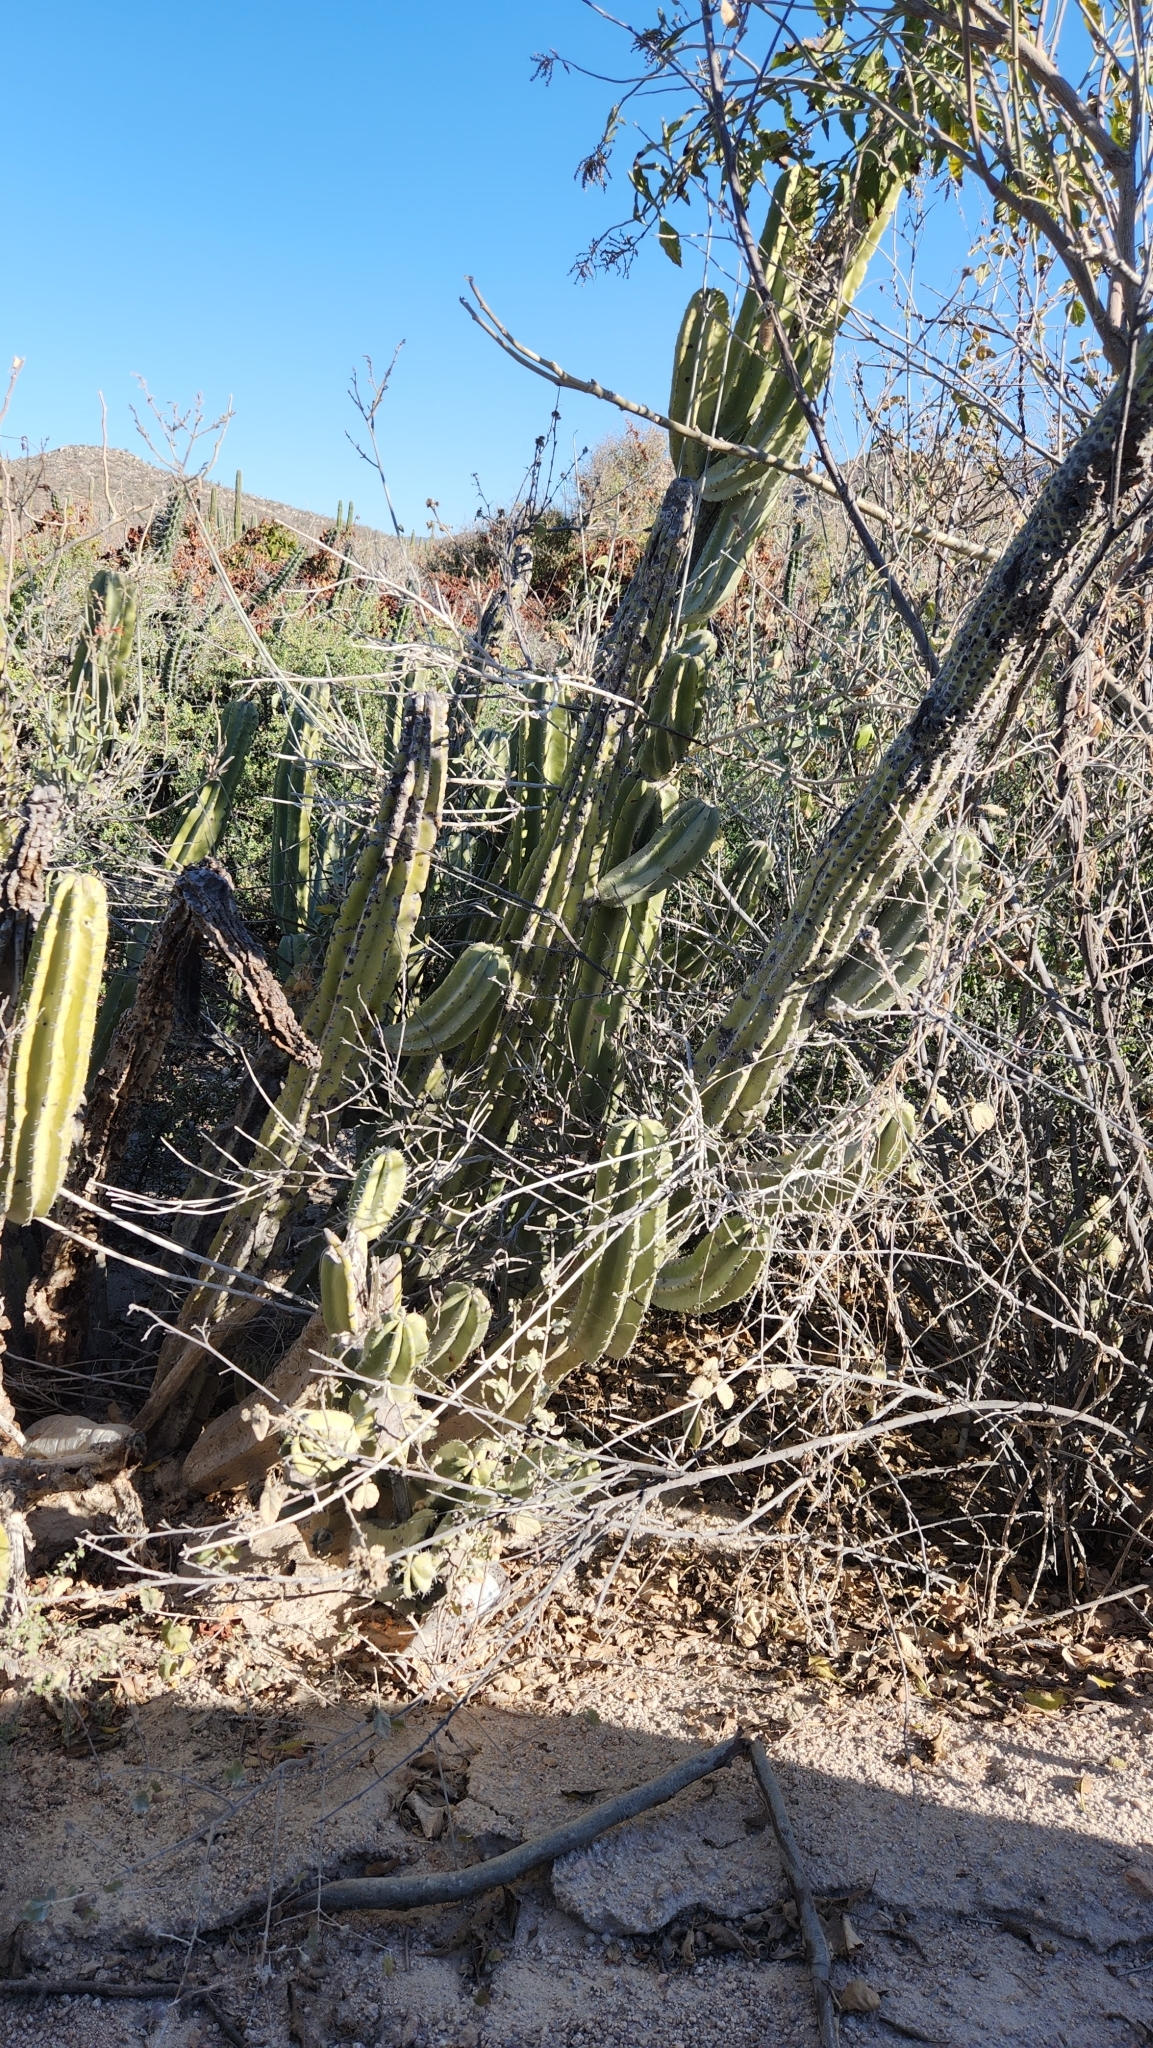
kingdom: Plantae
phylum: Tracheophyta
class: Magnoliopsida
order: Caryophyllales
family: Cactaceae
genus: Pachycereus
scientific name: Pachycereus schottii
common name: Senita cactus
